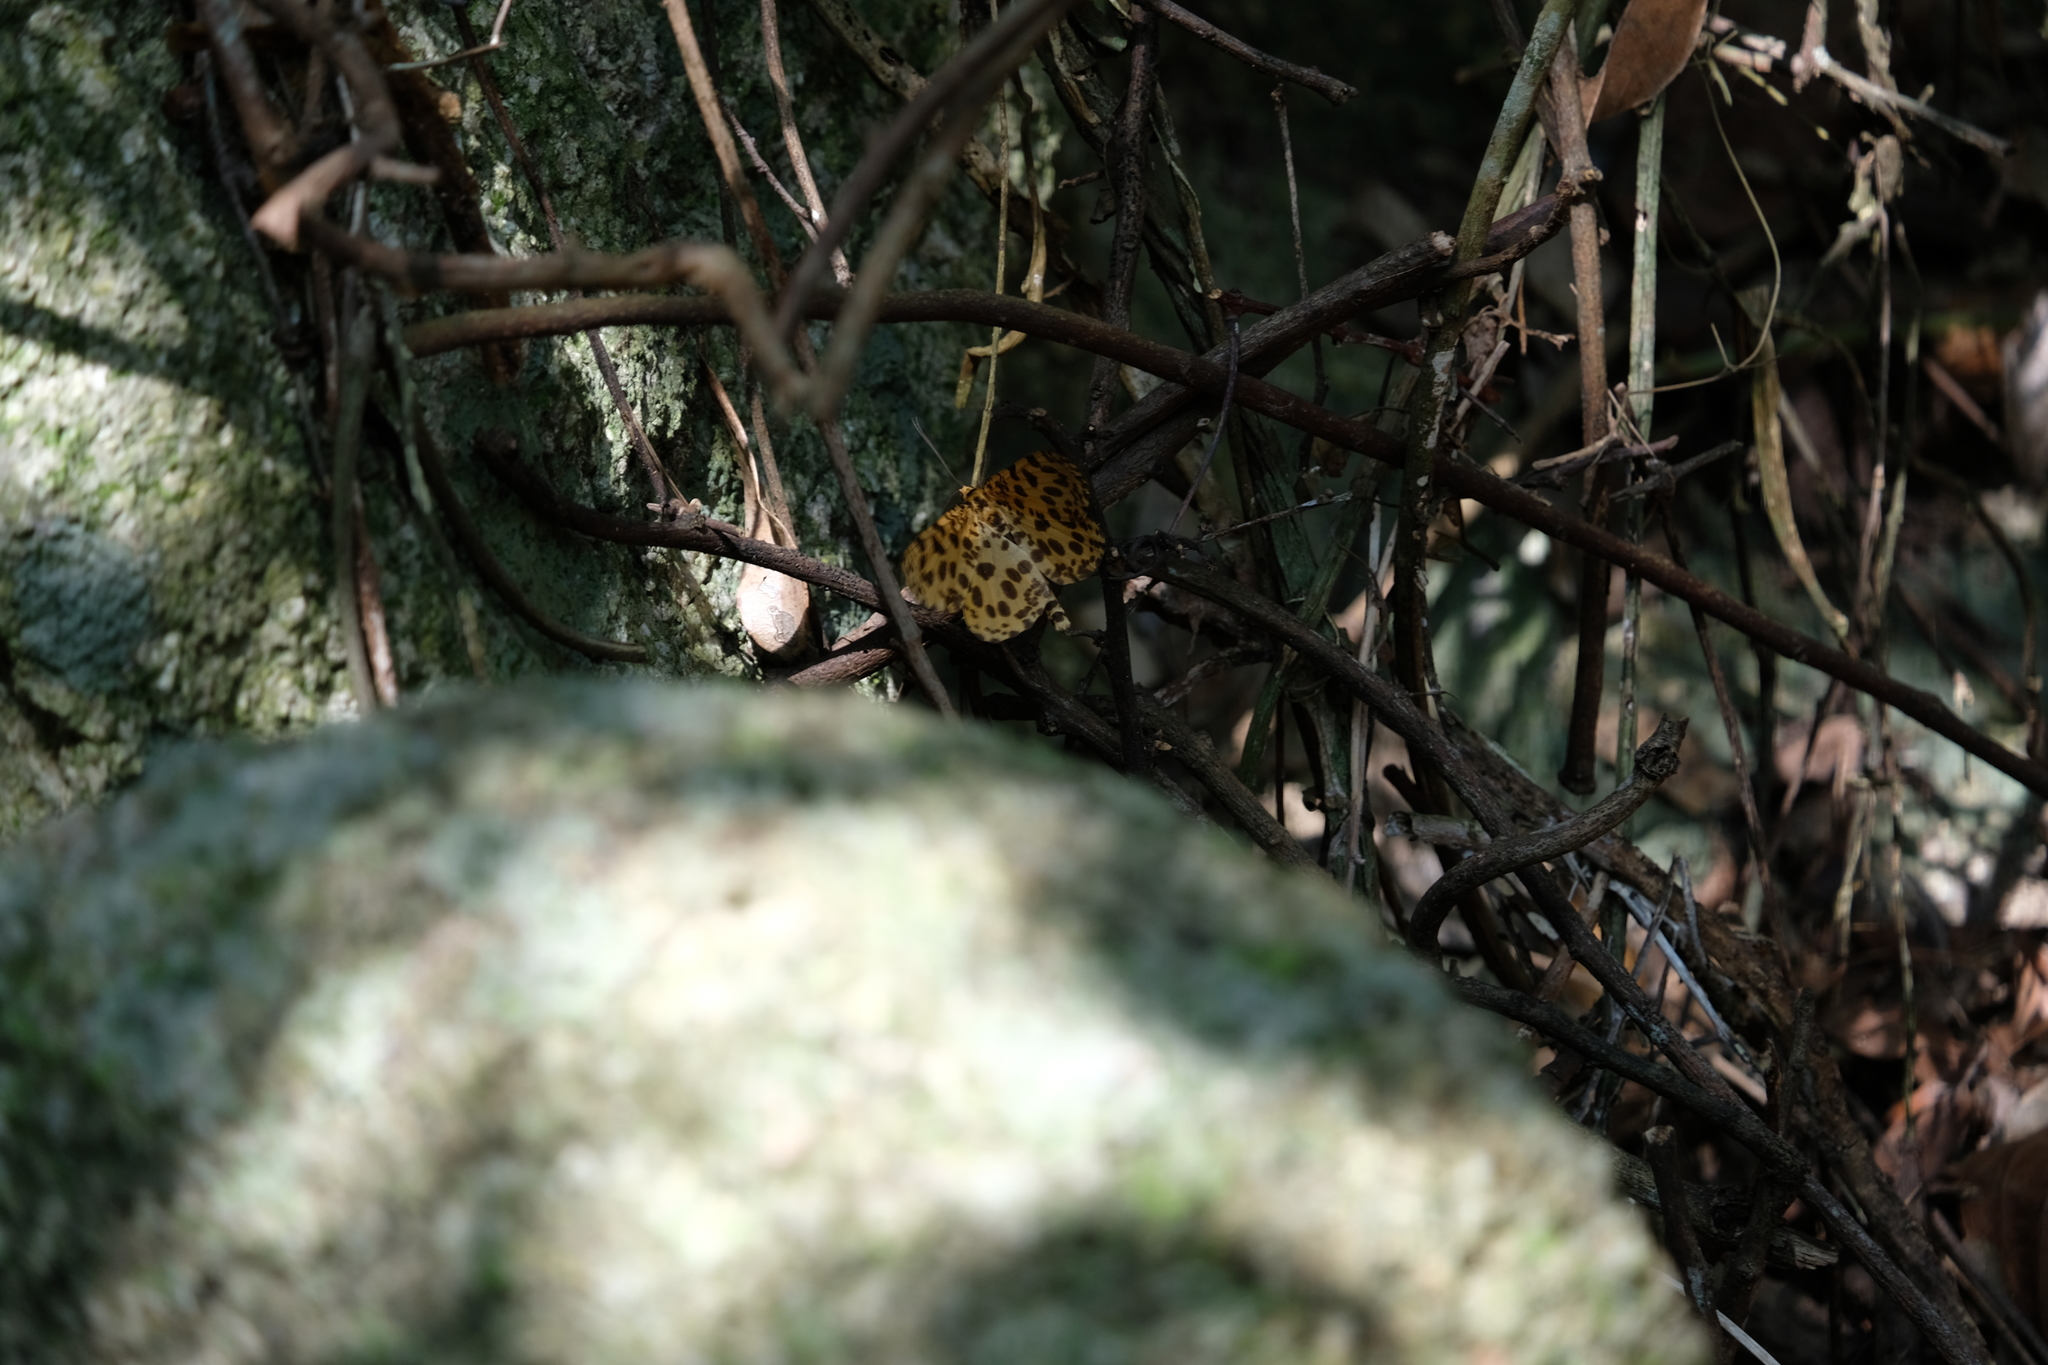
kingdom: Animalia
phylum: Arthropoda
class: Insecta
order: Lepidoptera
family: Geometridae
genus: Obeidia
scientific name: Obeidia Epobeidia tigrata
